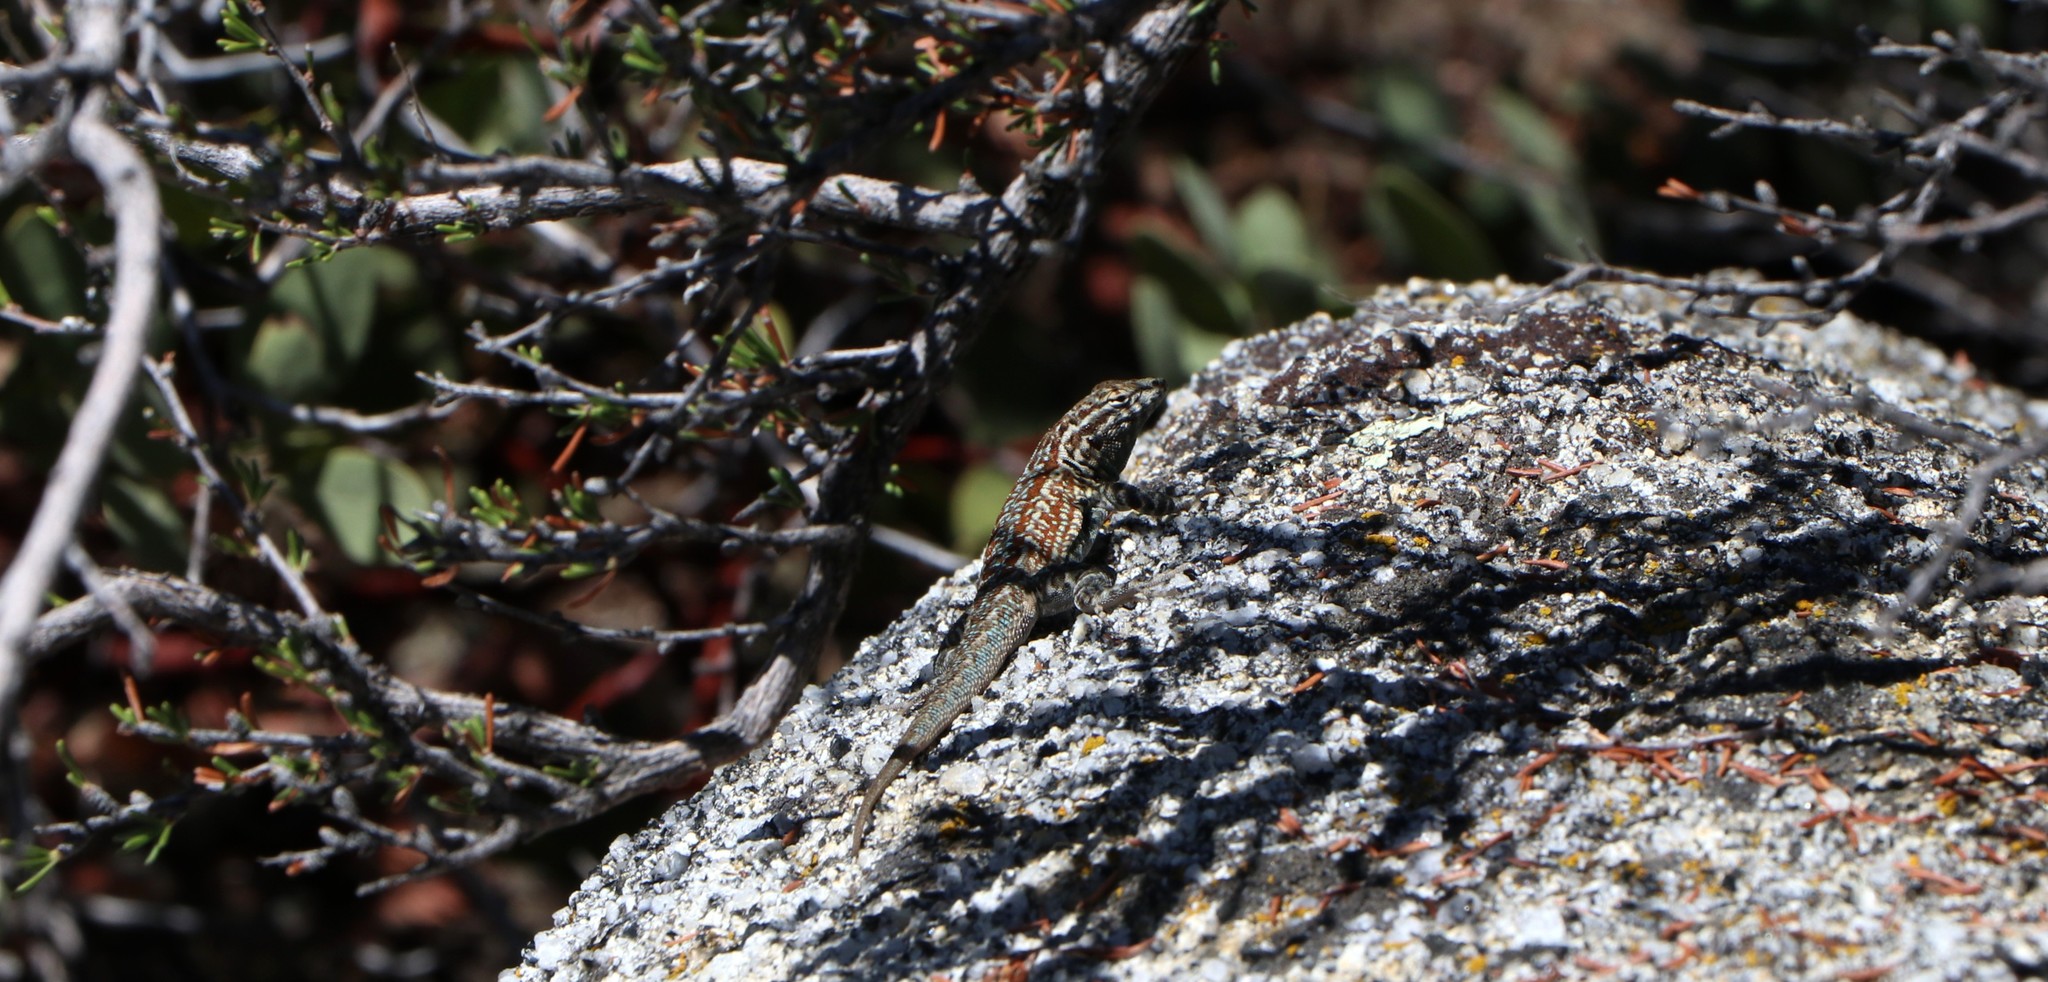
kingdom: Animalia
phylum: Chordata
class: Squamata
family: Phrynosomatidae
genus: Uta
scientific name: Uta stansburiana
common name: Side-blotched lizard
